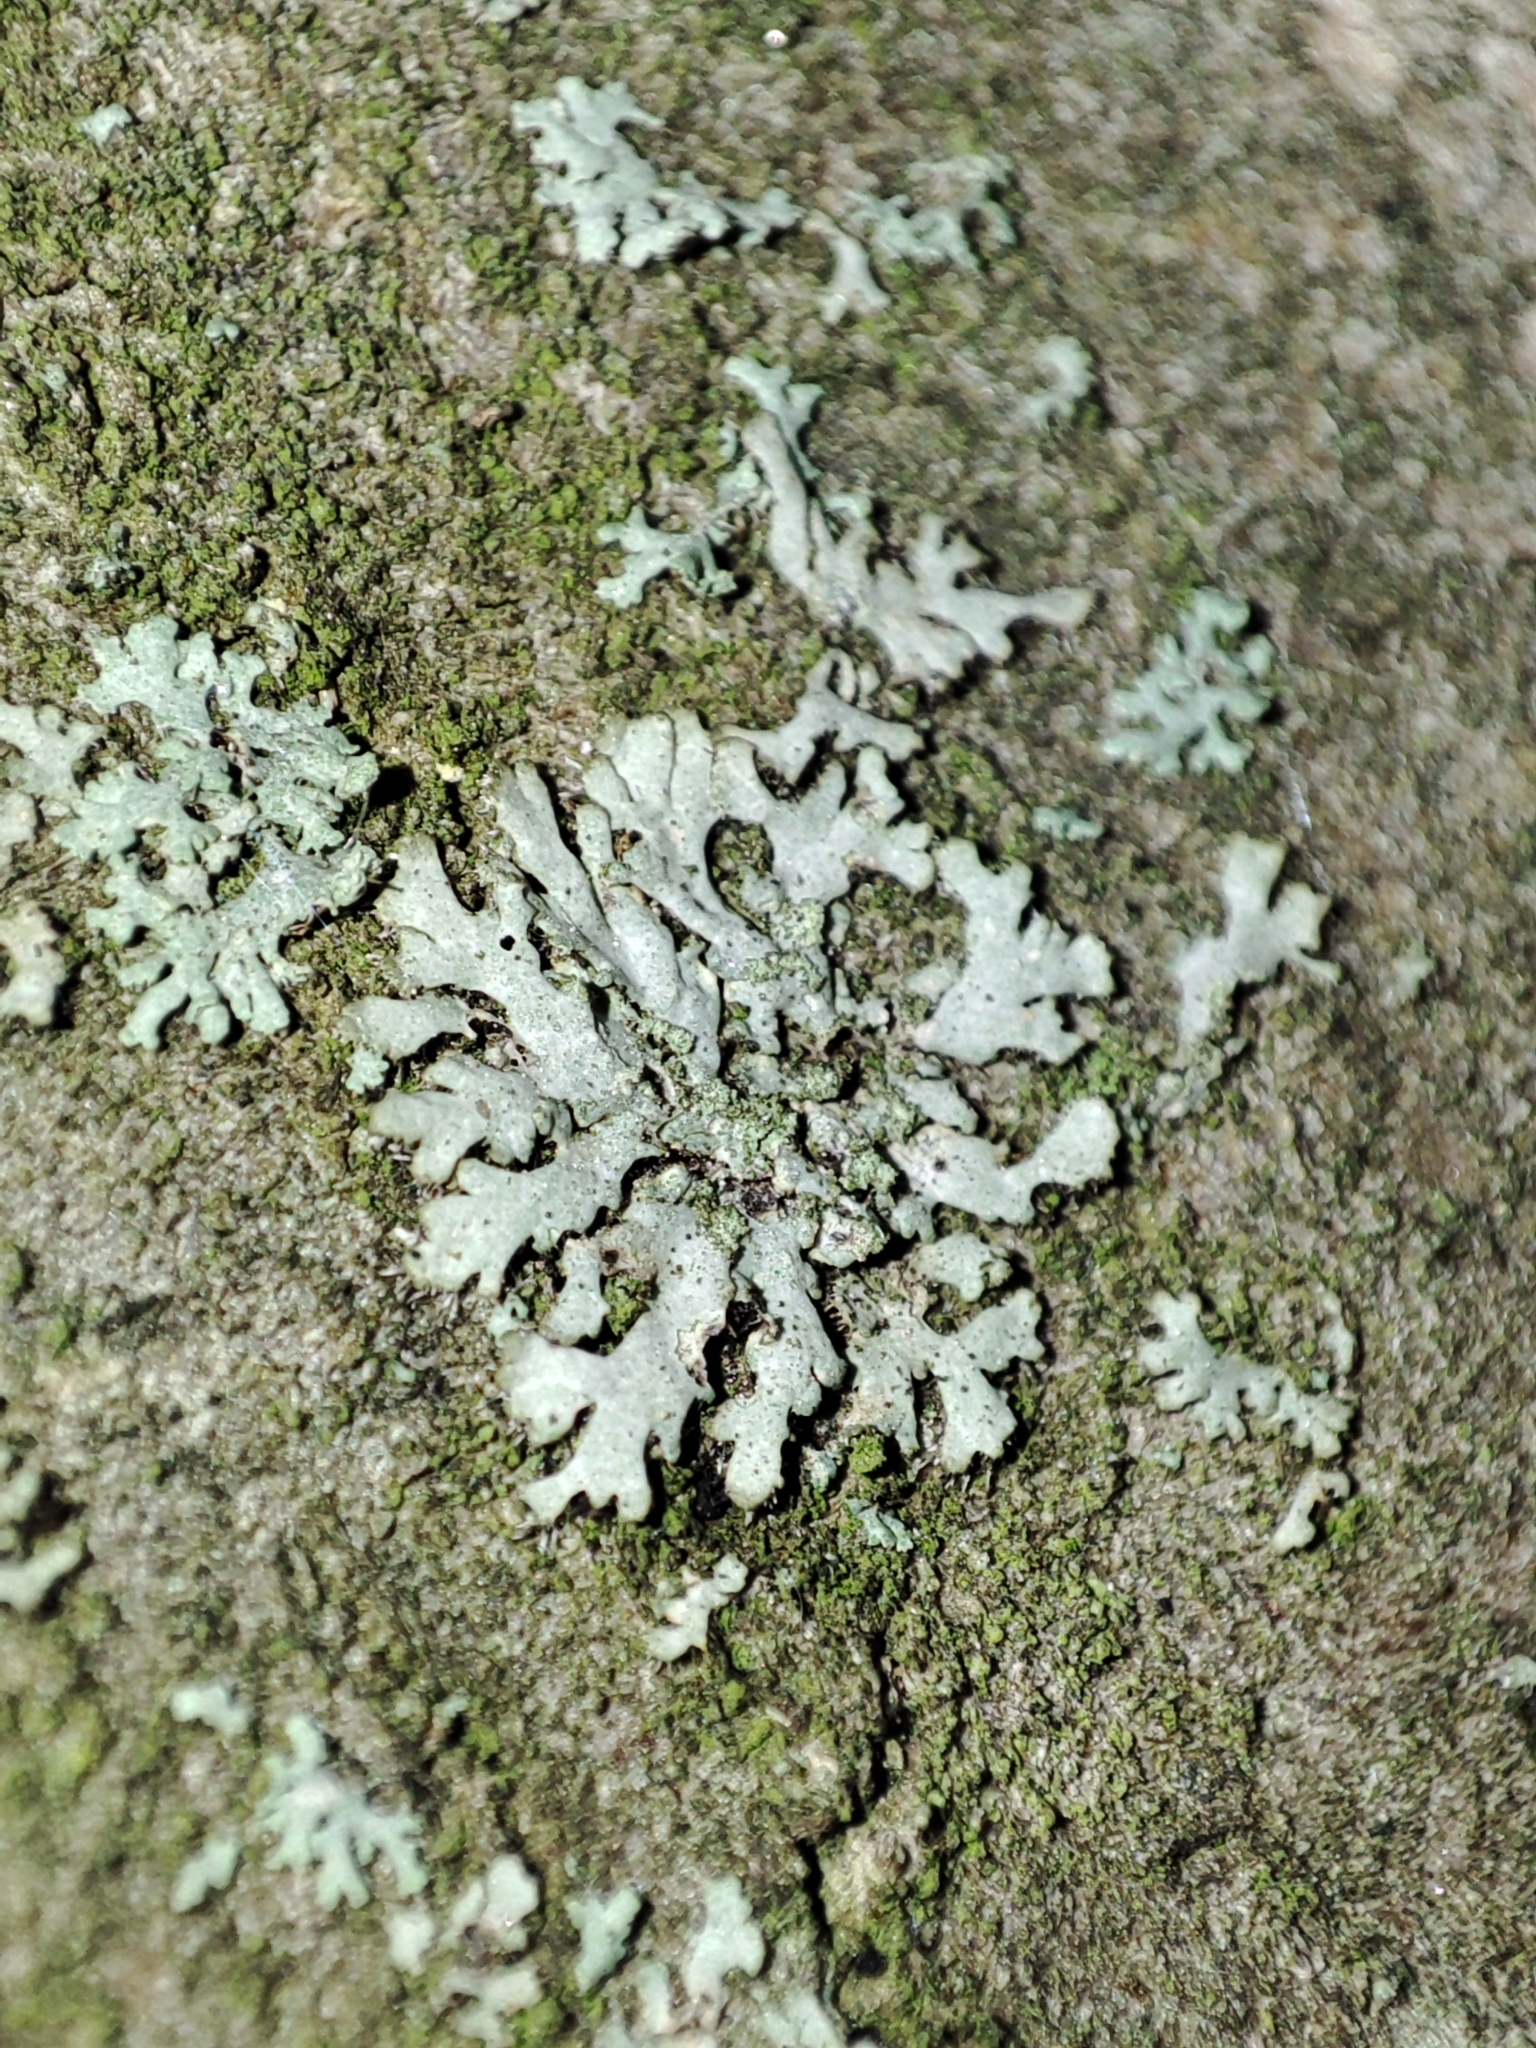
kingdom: Fungi
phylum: Ascomycota
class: Lecanoromycetes
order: Caliciales
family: Physciaceae
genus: Phaeophyscia
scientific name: Phaeophyscia orbicularis
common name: Mealy shadow lichen
